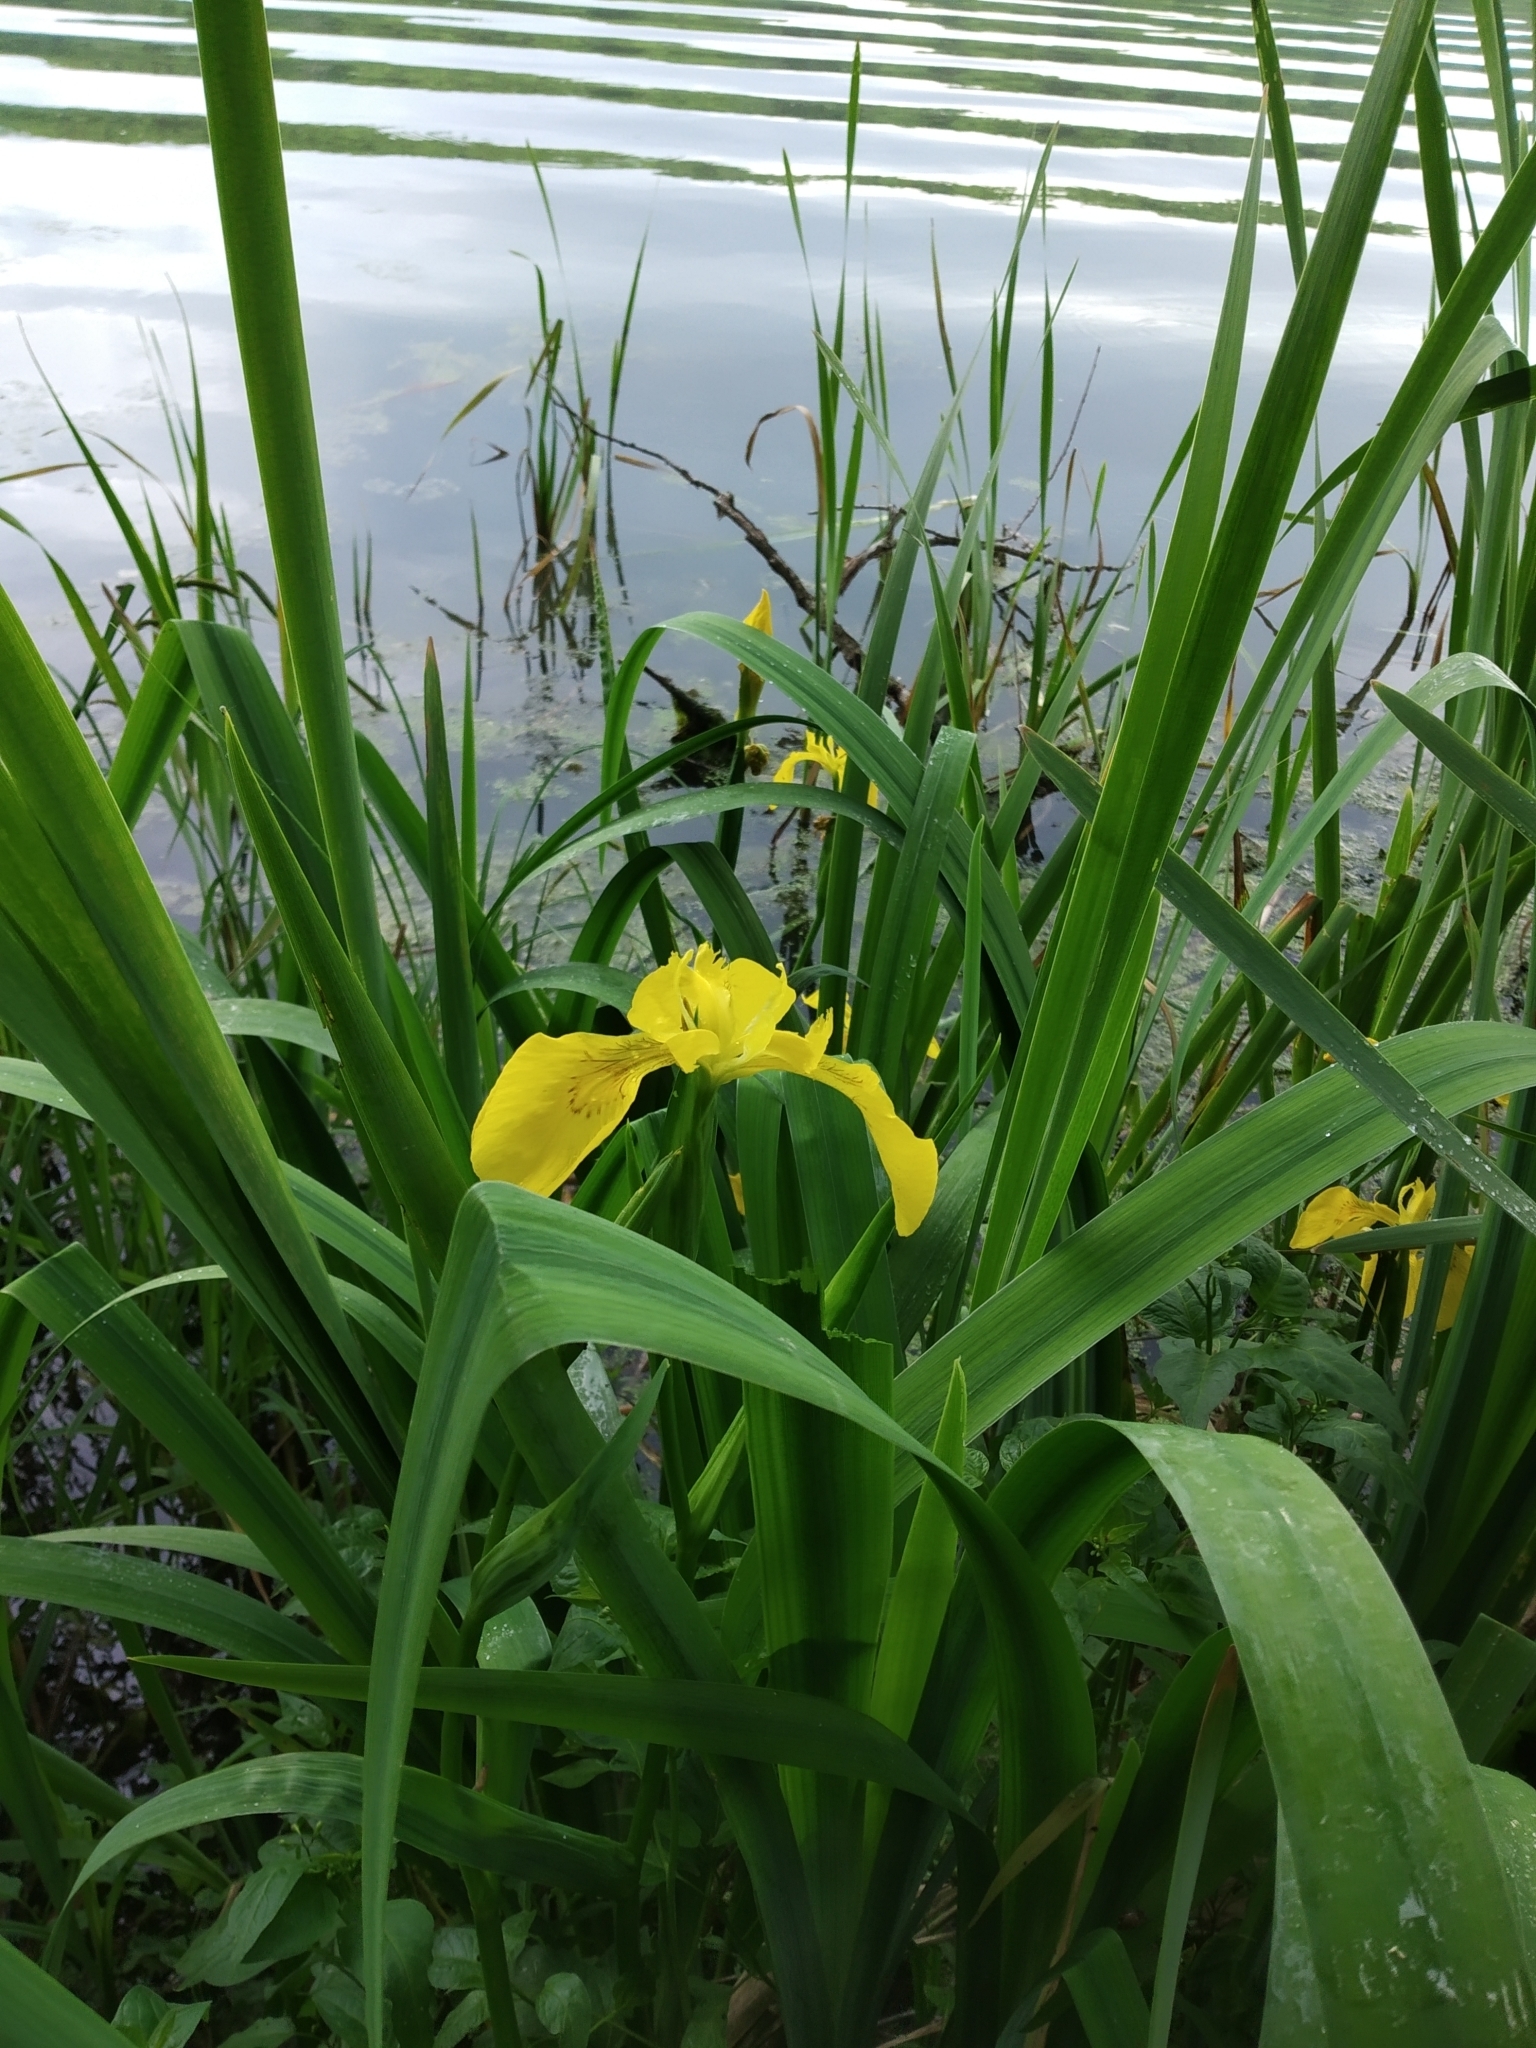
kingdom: Plantae
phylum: Tracheophyta
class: Liliopsida
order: Asparagales
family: Iridaceae
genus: Iris
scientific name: Iris pseudacorus
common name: Yellow flag
